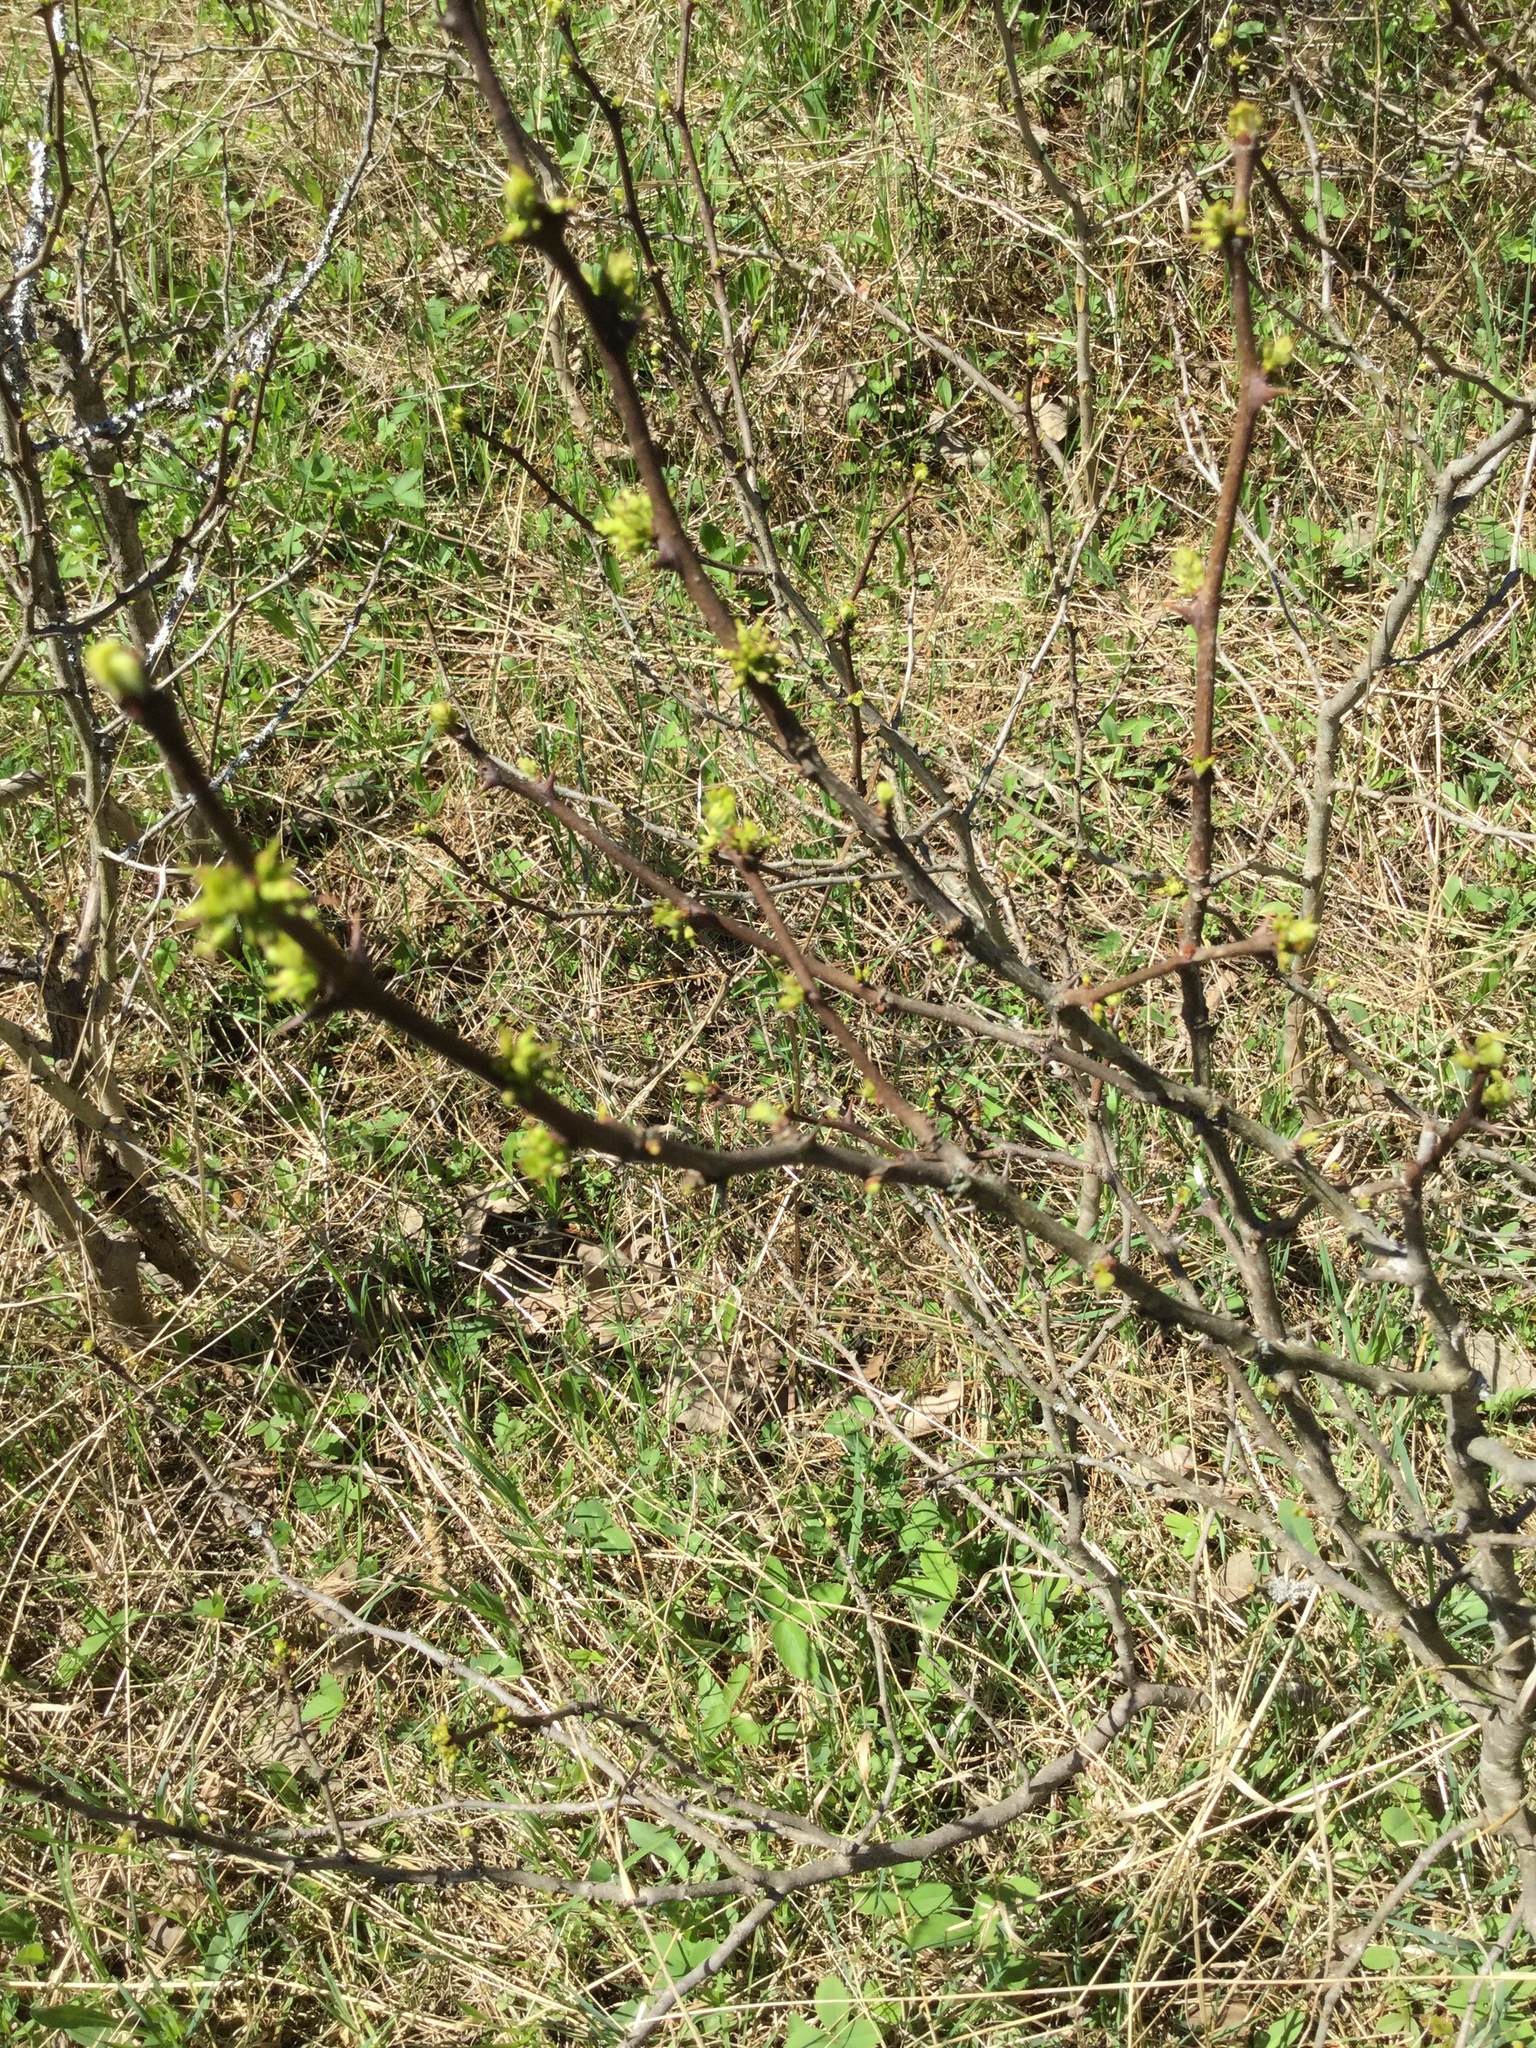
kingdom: Plantae
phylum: Tracheophyta
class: Magnoliopsida
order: Sapindales
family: Rutaceae
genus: Zanthoxylum
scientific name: Zanthoxylum americanum
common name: Northern prickly-ash
